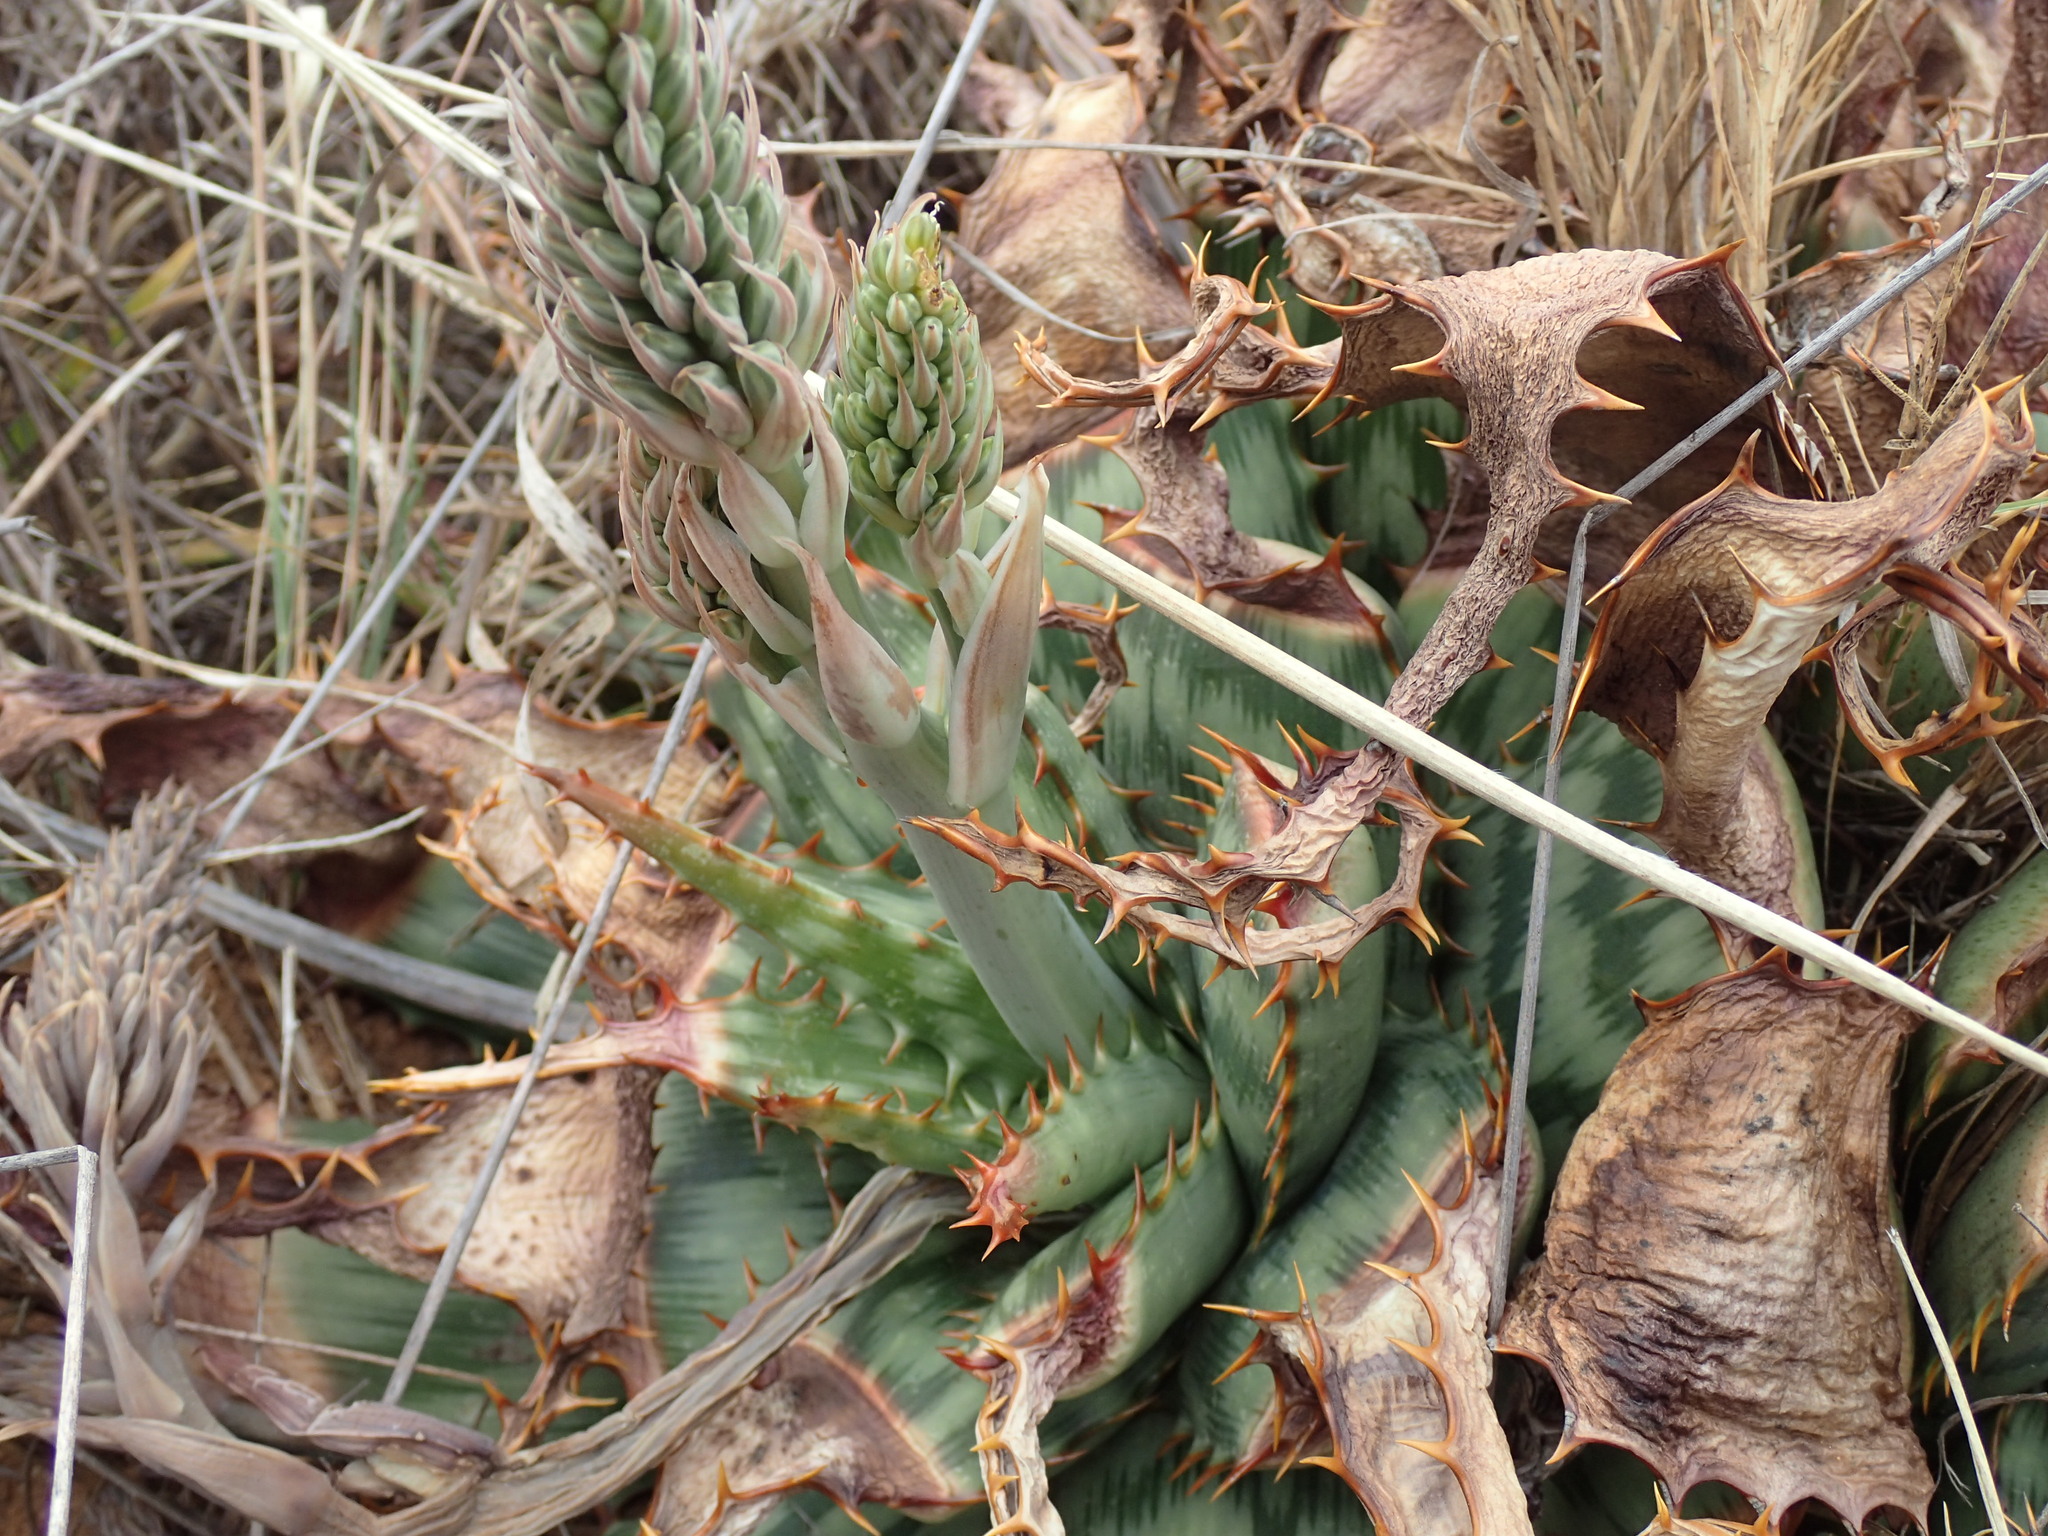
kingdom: Plantae
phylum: Tracheophyta
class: Liliopsida
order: Asparagales
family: Asphodelaceae
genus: Aloe
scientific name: Aloe davyana
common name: Spotted aloe
